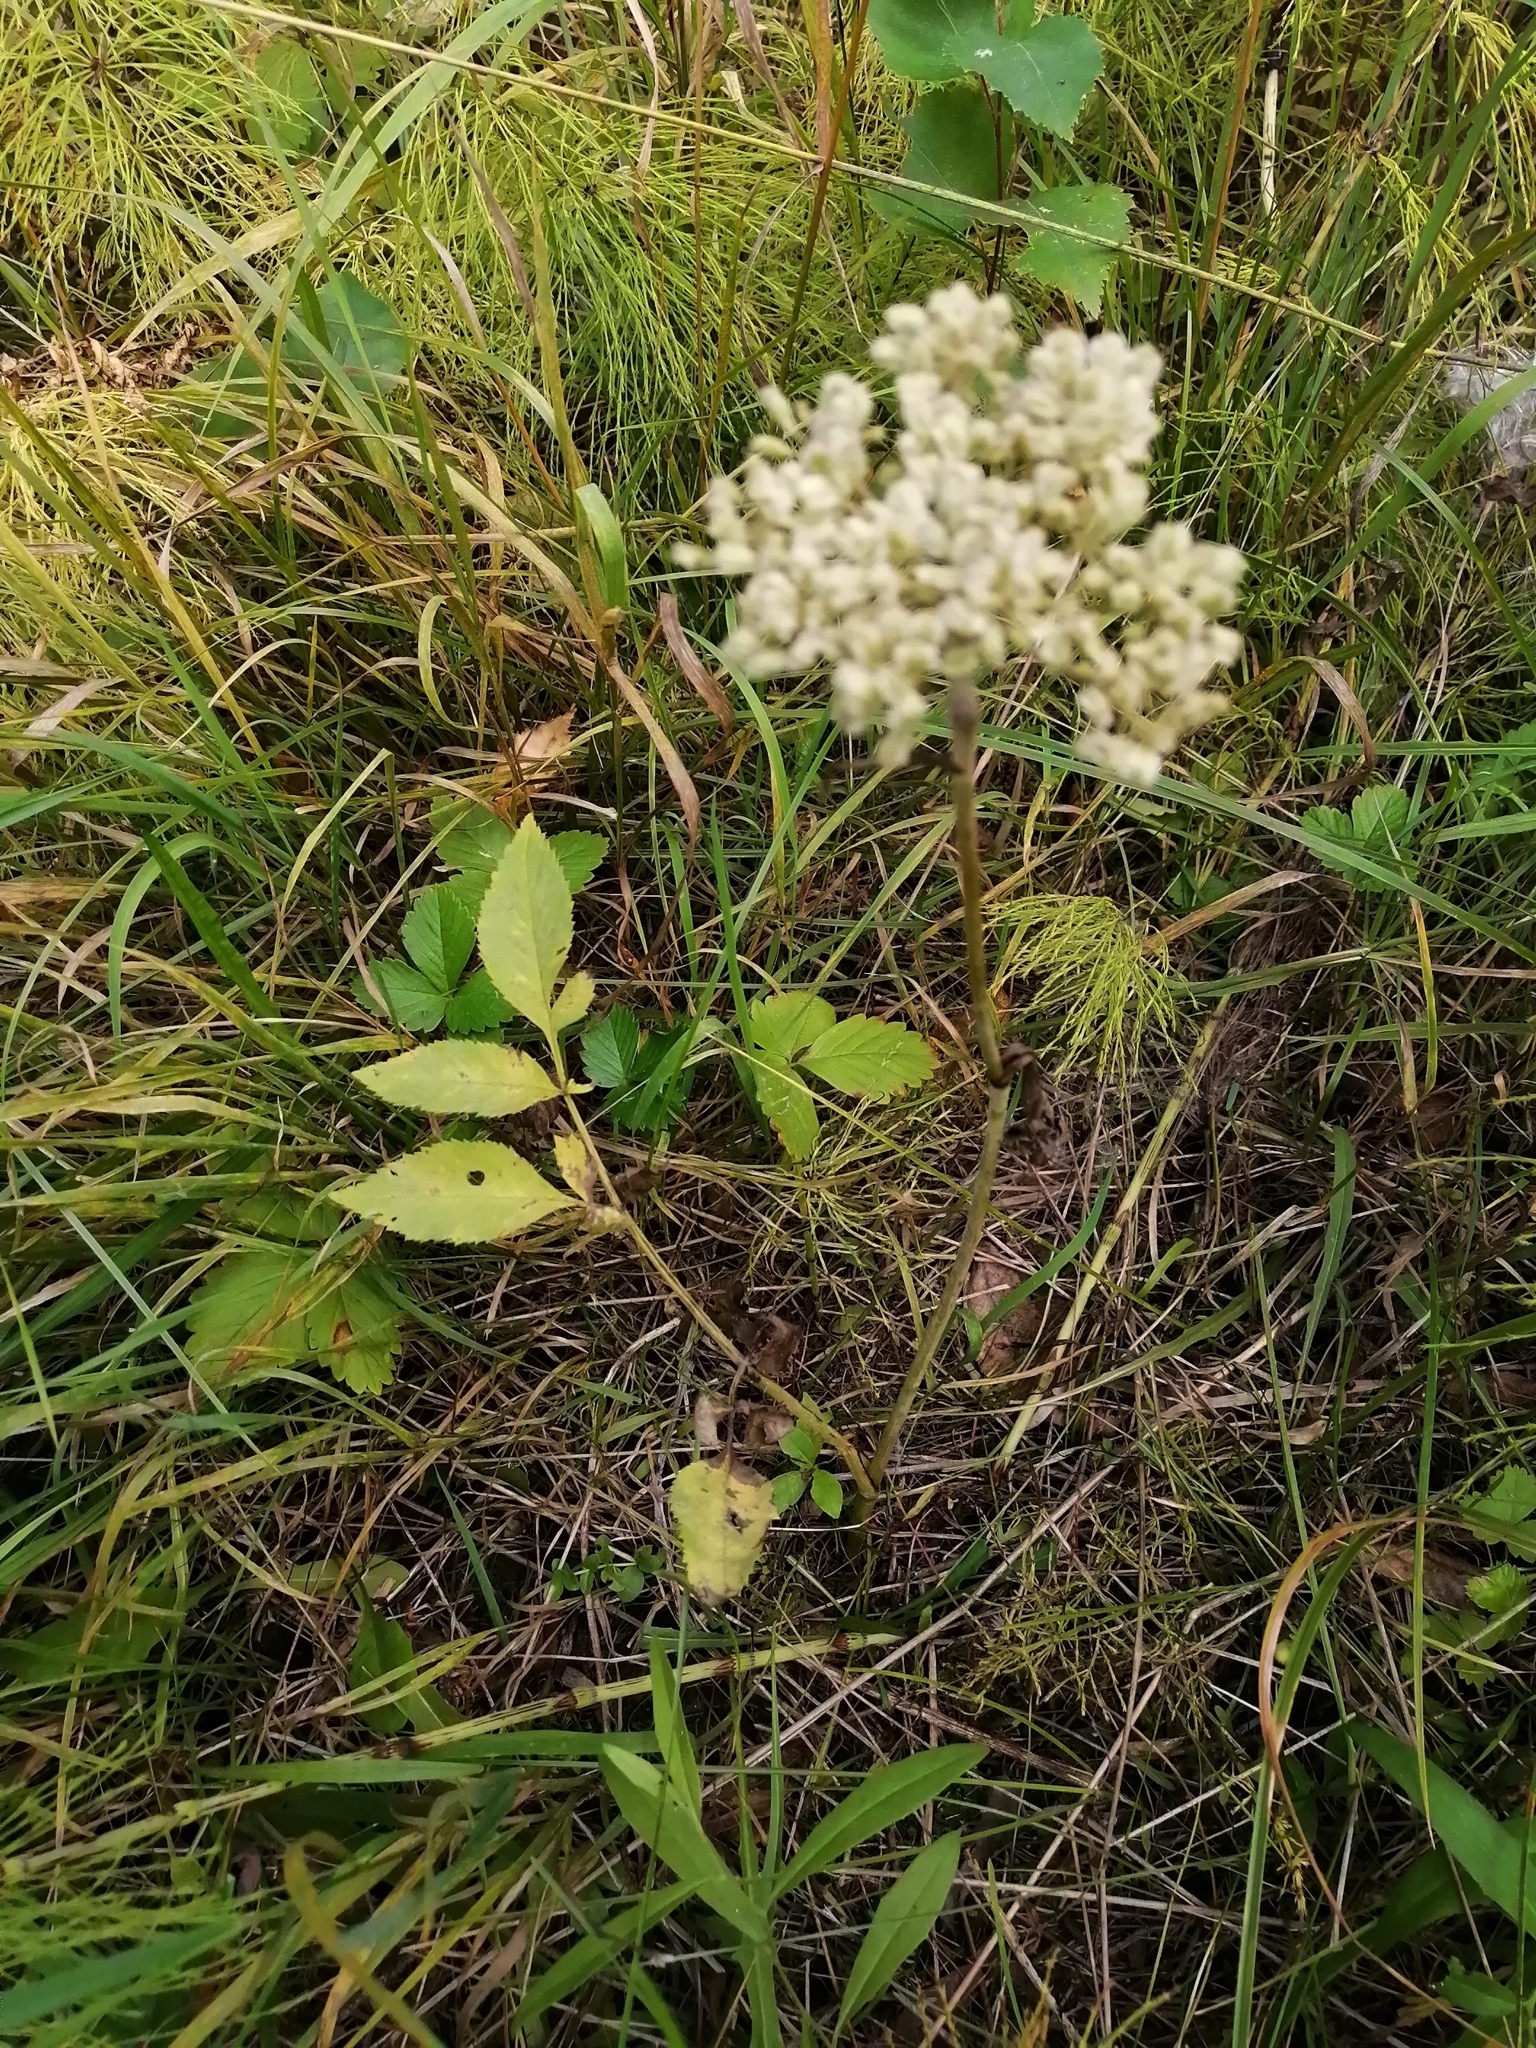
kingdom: Plantae
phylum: Tracheophyta
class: Magnoliopsida
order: Apiales
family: Apiaceae
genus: Angelica
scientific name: Angelica sylvestris
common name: Wild angelica
